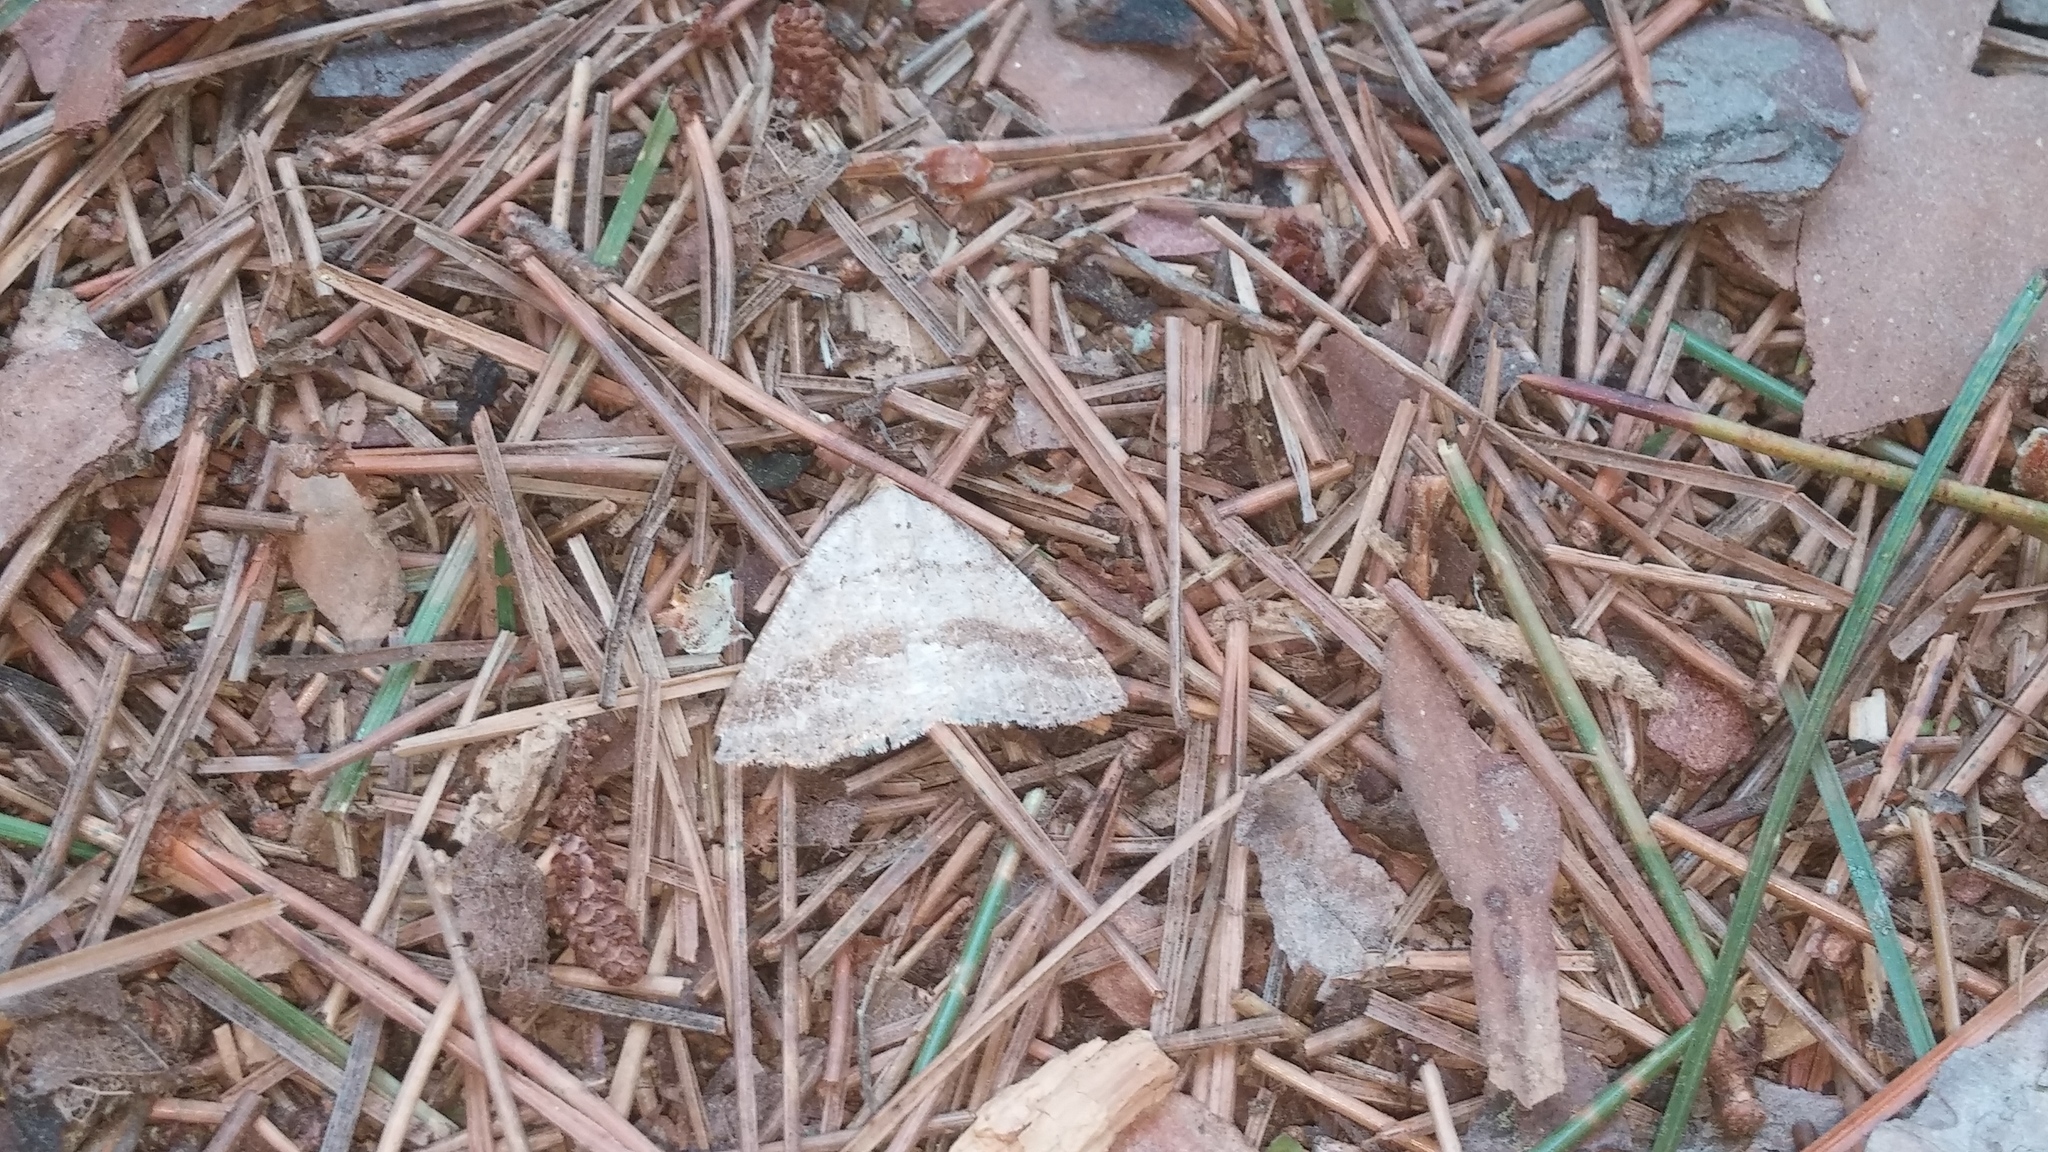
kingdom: Animalia
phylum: Arthropoda
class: Insecta
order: Lepidoptera
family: Geometridae
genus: Tacparia
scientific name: Tacparia detersata
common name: Pale alder moth
